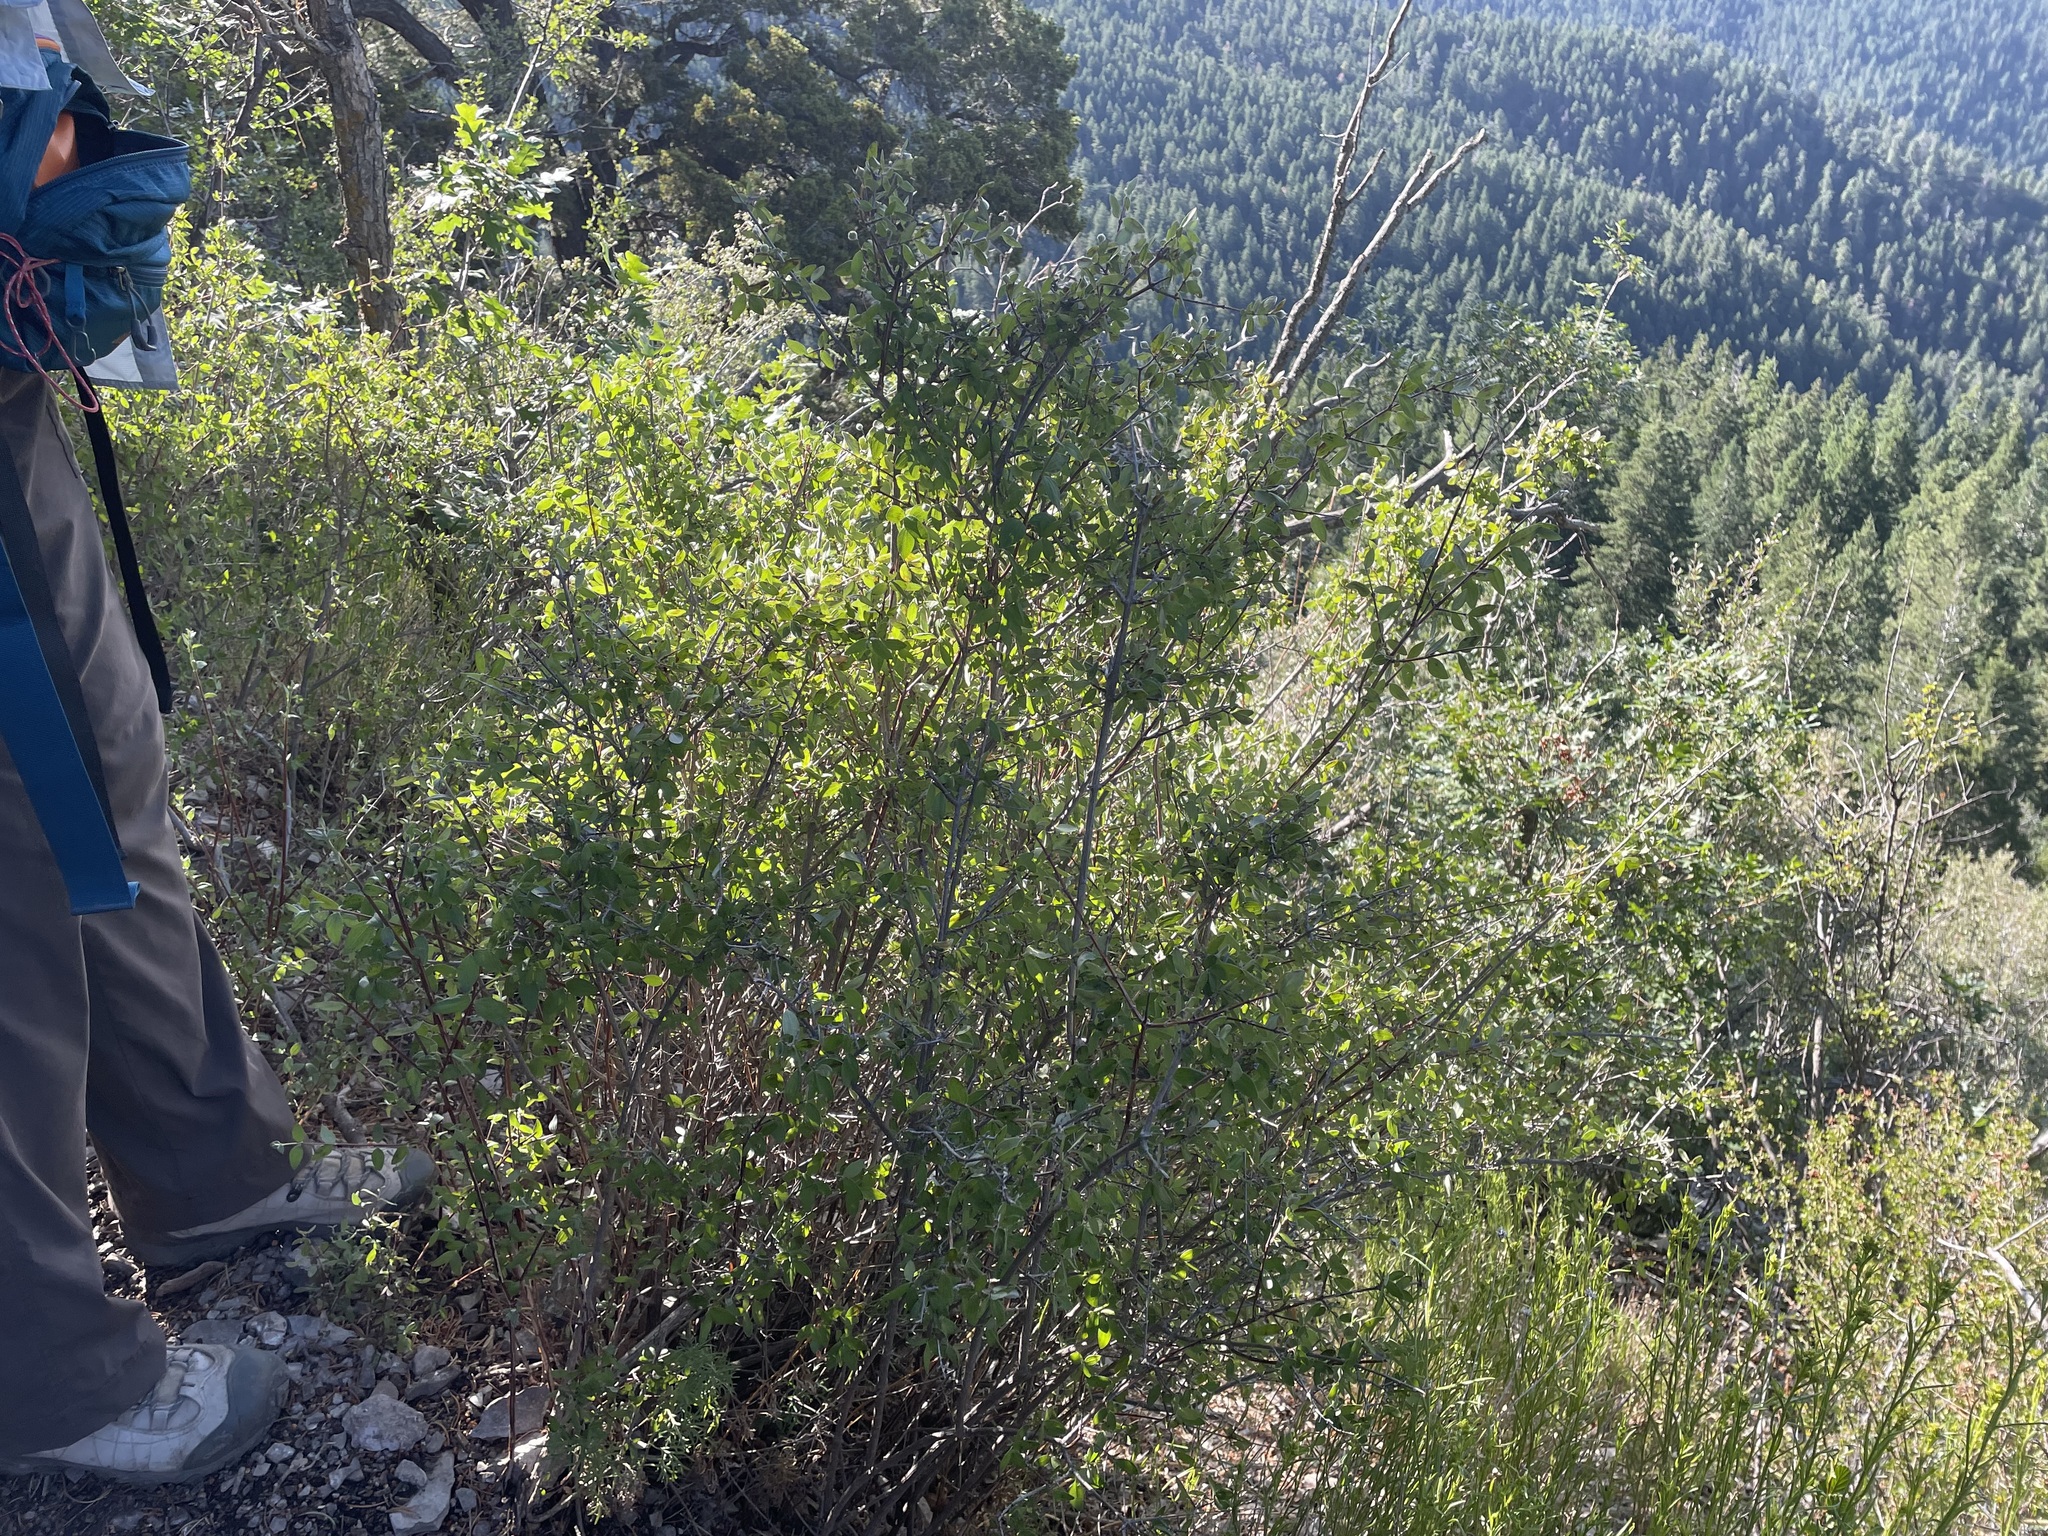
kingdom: Plantae
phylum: Tracheophyta
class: Magnoliopsida
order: Cornales
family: Hydrangeaceae
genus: Philadelphus
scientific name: Philadelphus microphyllus
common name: Desert mock orange
